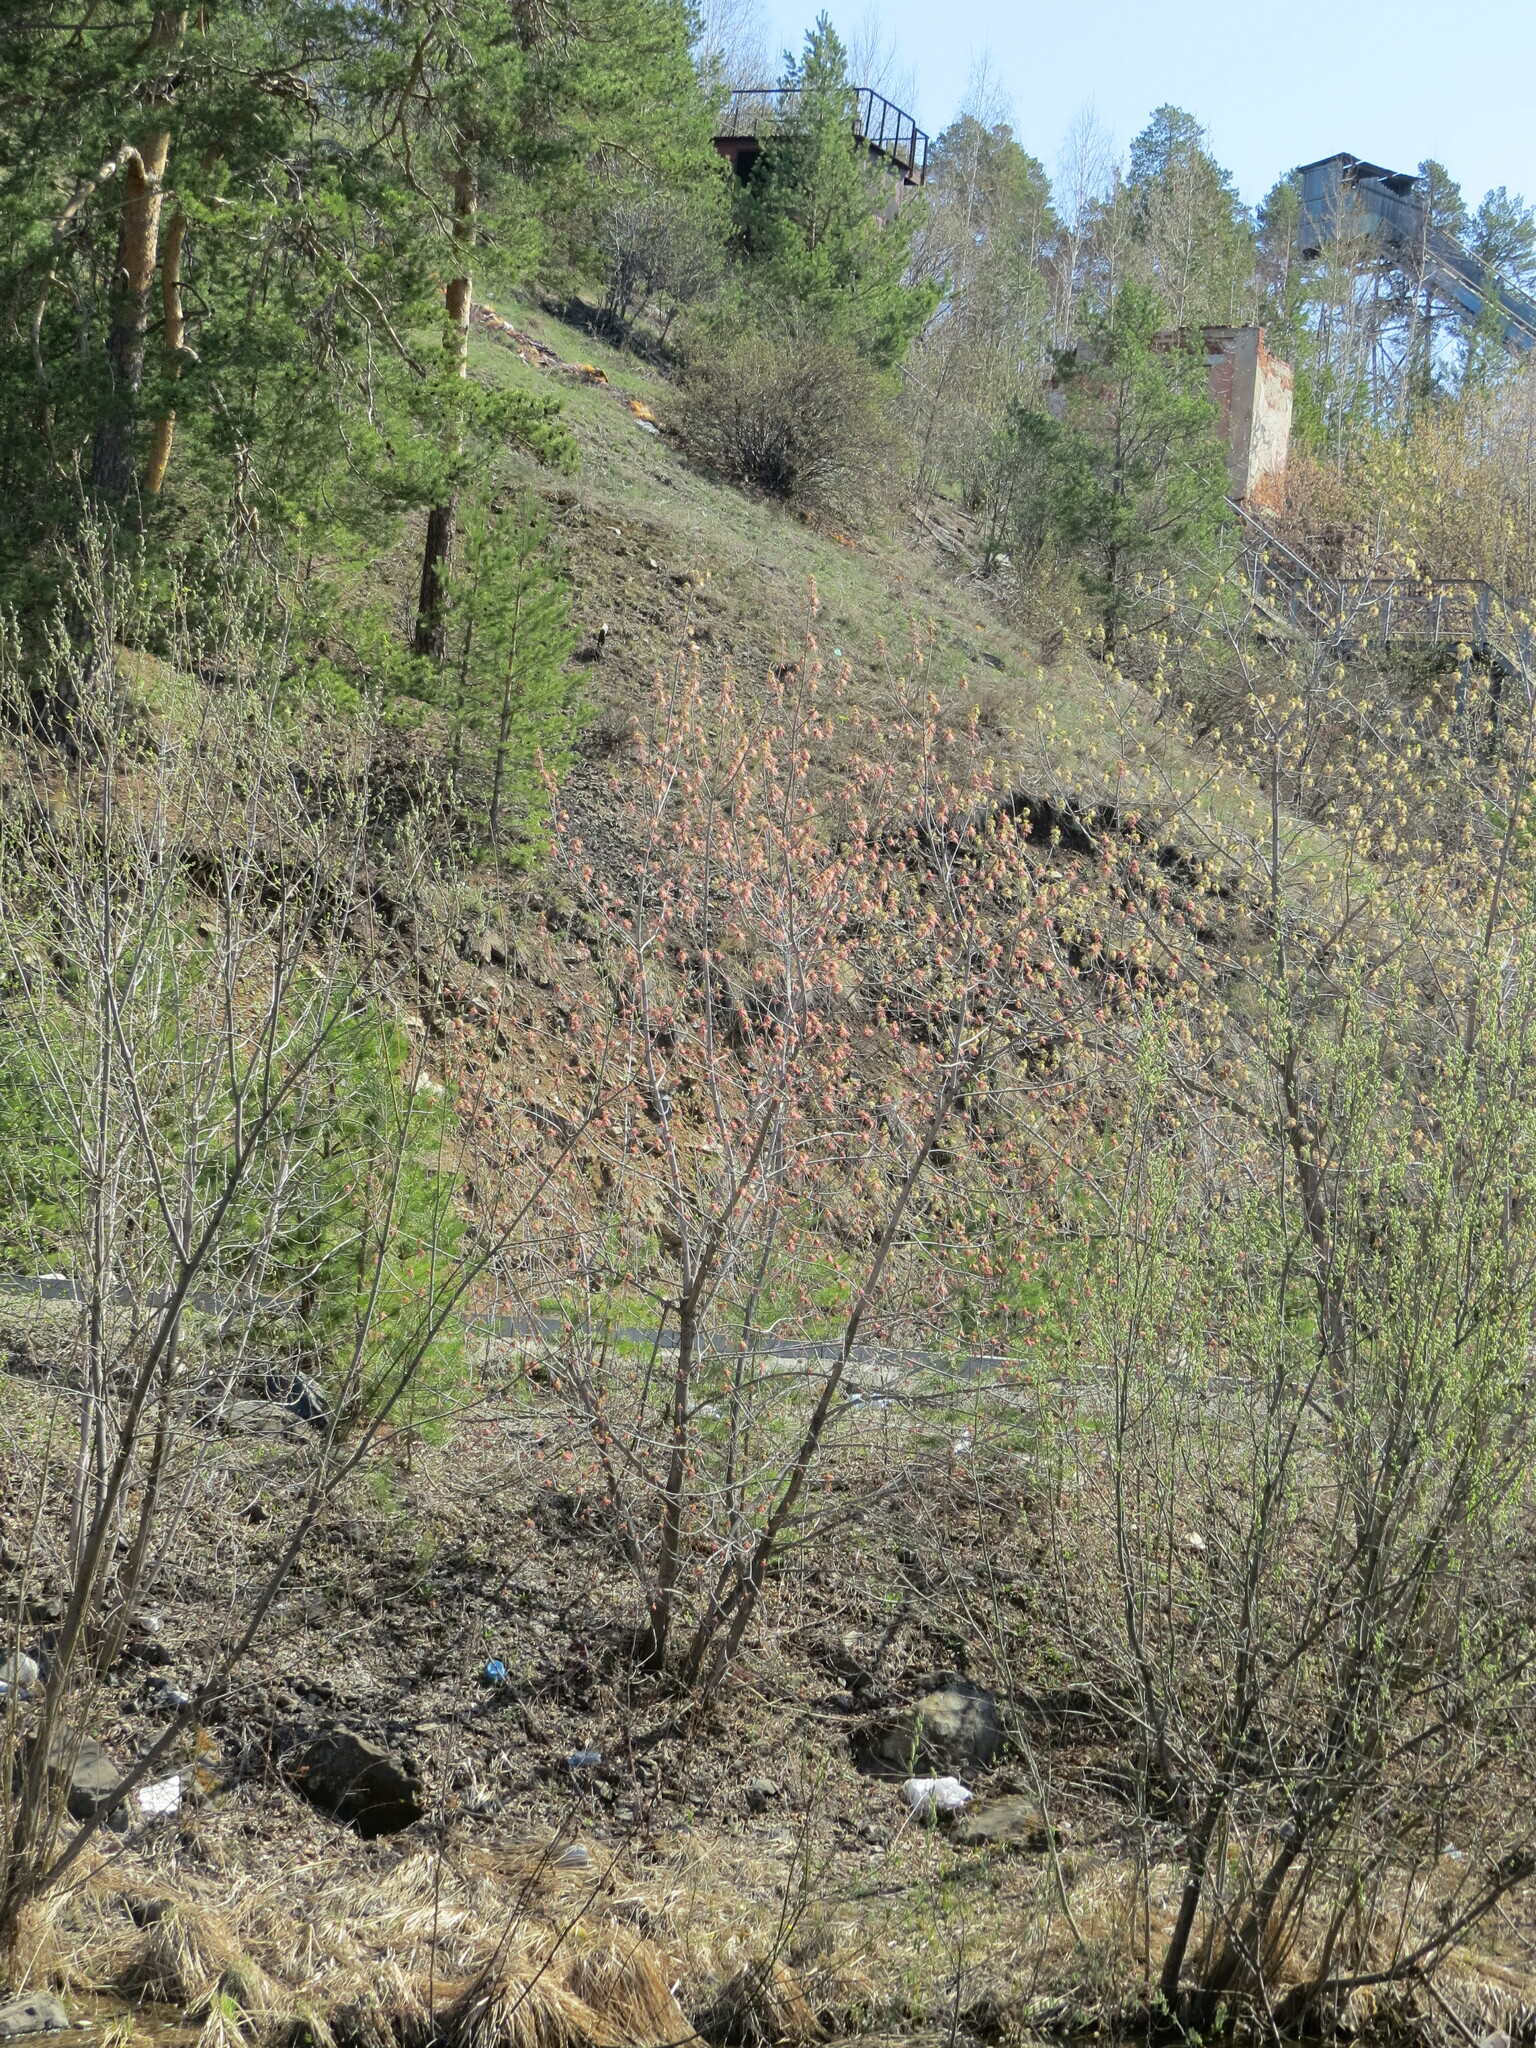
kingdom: Plantae
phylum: Tracheophyta
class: Magnoliopsida
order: Sapindales
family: Sapindaceae
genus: Acer
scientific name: Acer negundo
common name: Ashleaf maple
